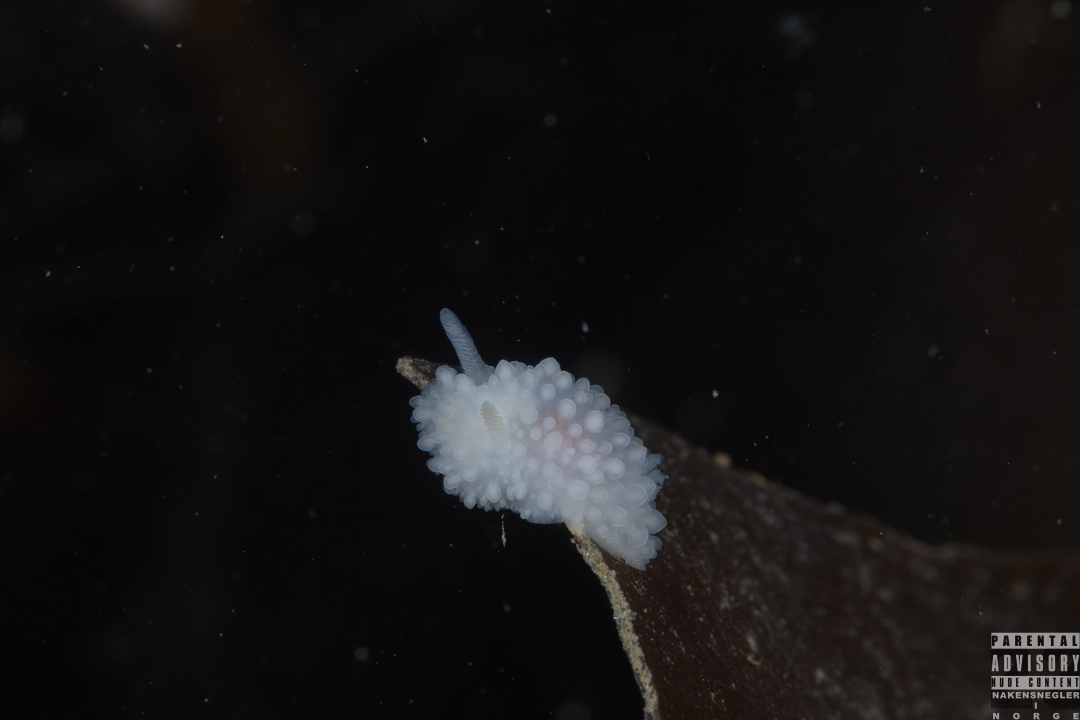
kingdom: Animalia
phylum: Mollusca
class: Gastropoda
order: Nudibranchia
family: Onchidorididae
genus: Adalaria
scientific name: Adalaria loveni
